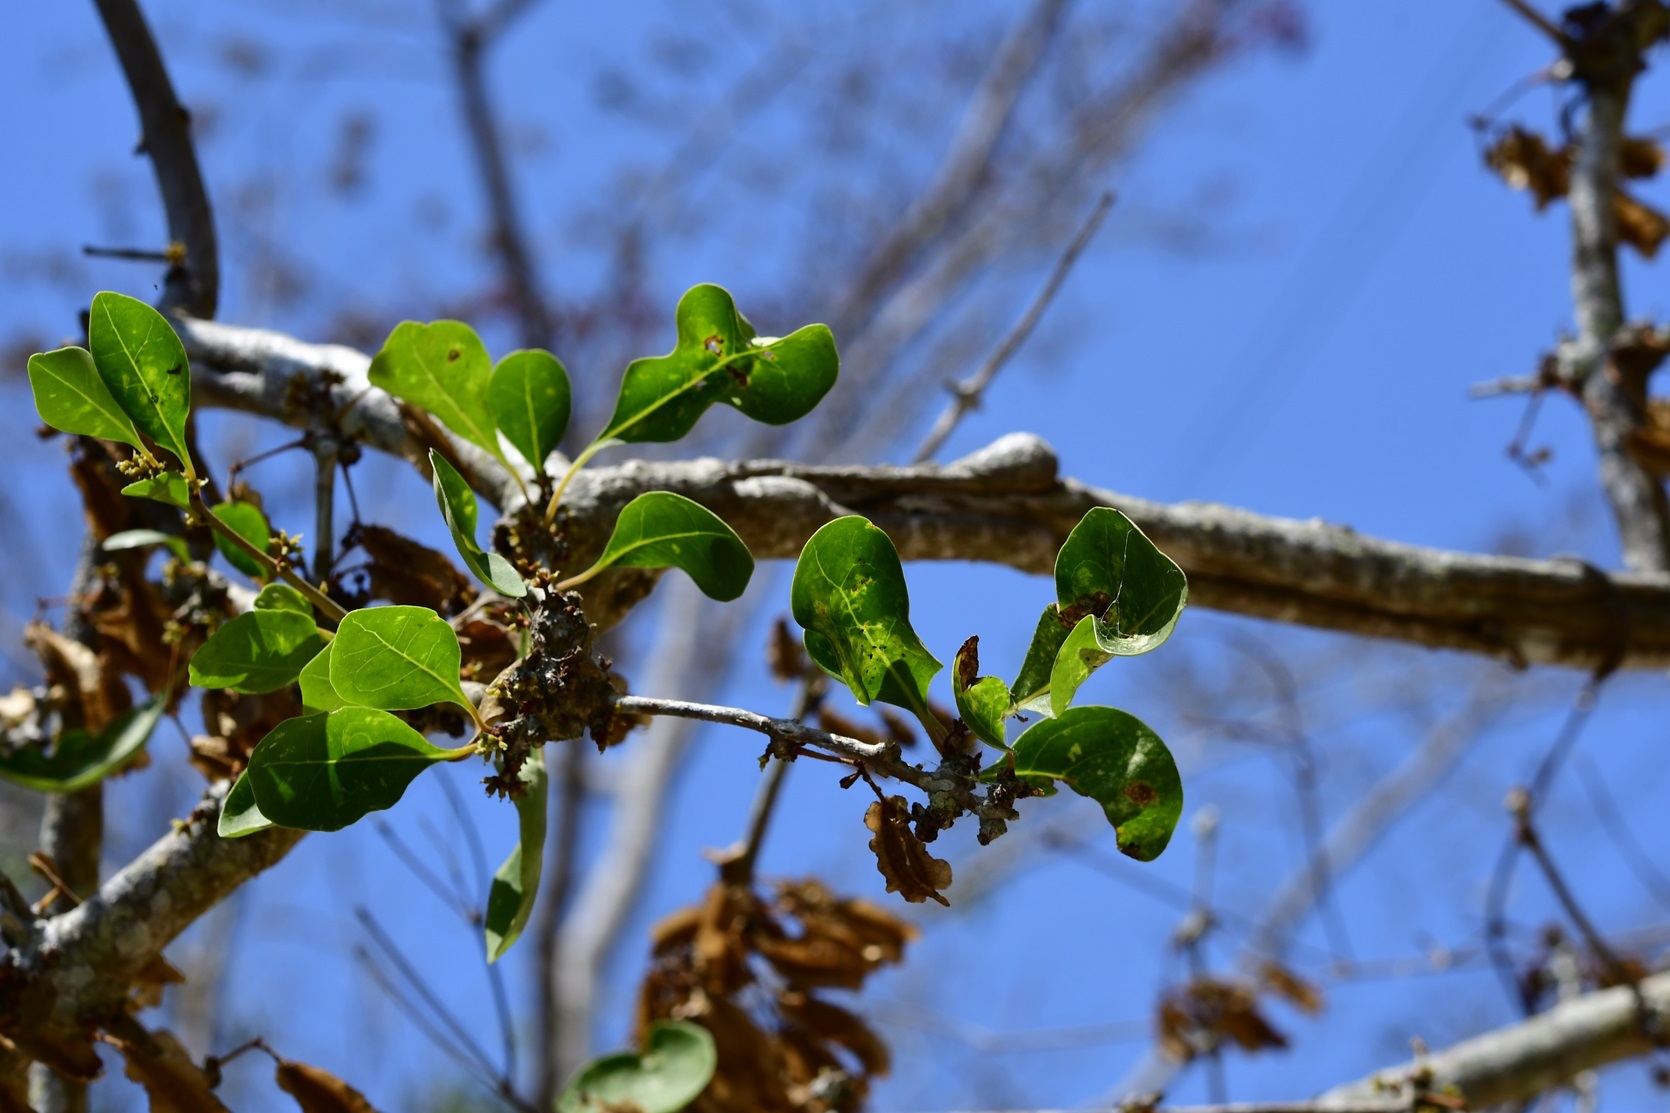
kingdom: Plantae
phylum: Tracheophyta
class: Magnoliopsida
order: Caryophyllales
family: Nyctaginaceae
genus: Grajalesia
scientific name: Grajalesia fasciculata
